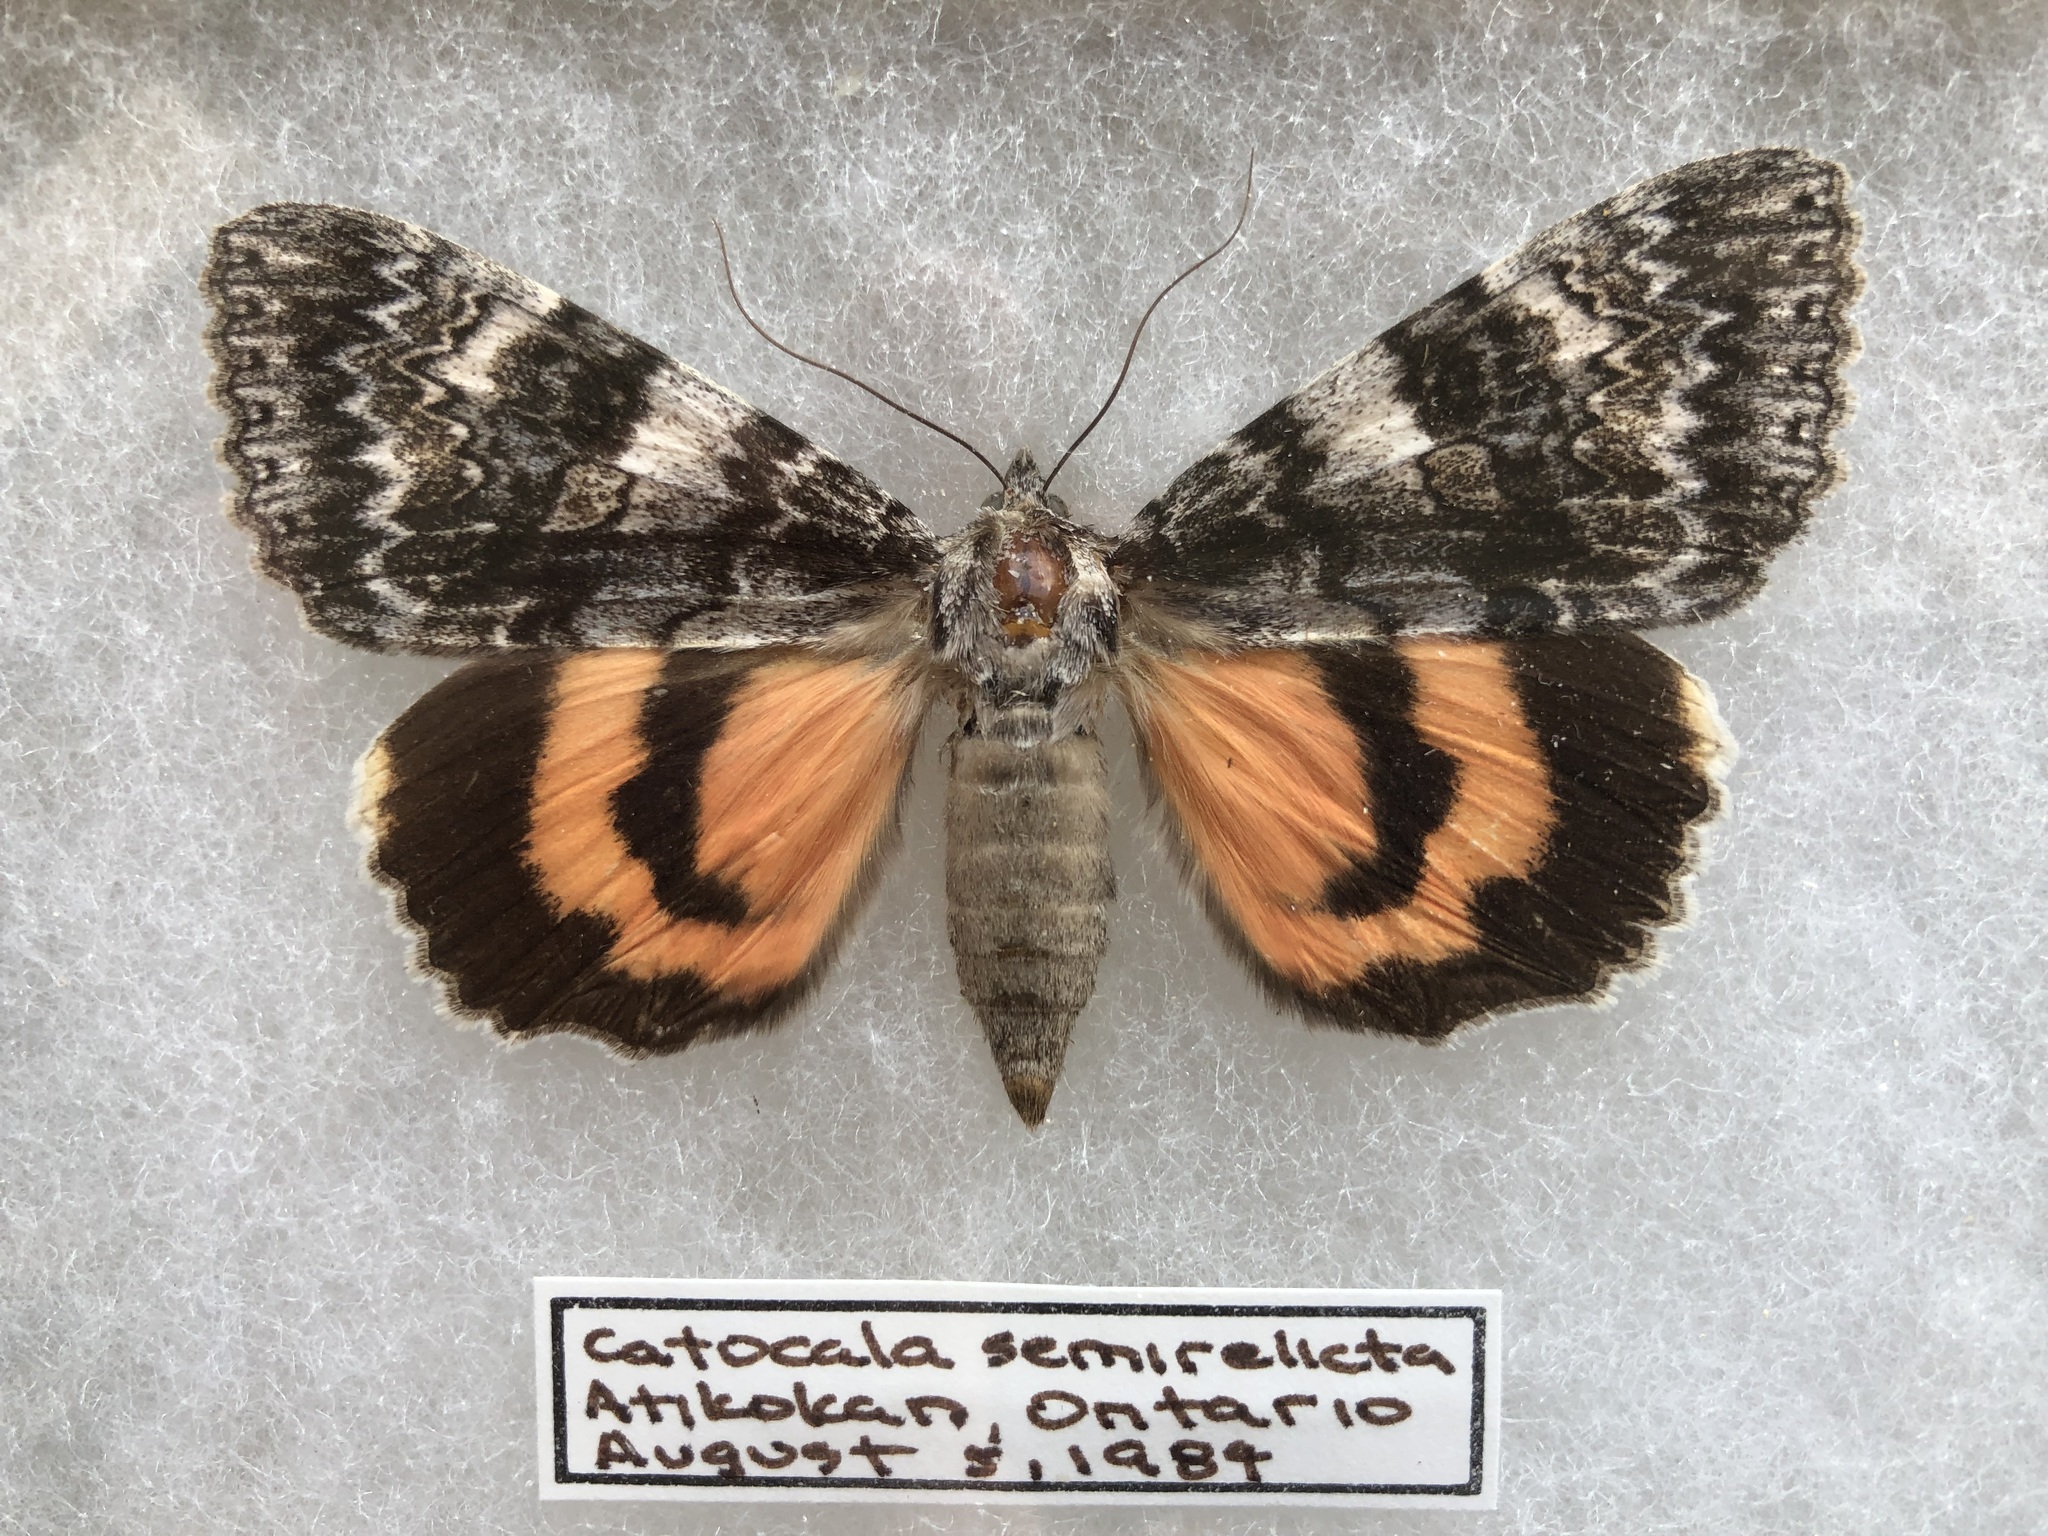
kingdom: Animalia
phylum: Arthropoda
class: Insecta
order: Lepidoptera
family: Erebidae
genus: Catocala
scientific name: Catocala semirelicta
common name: Semirelict underwing moth
